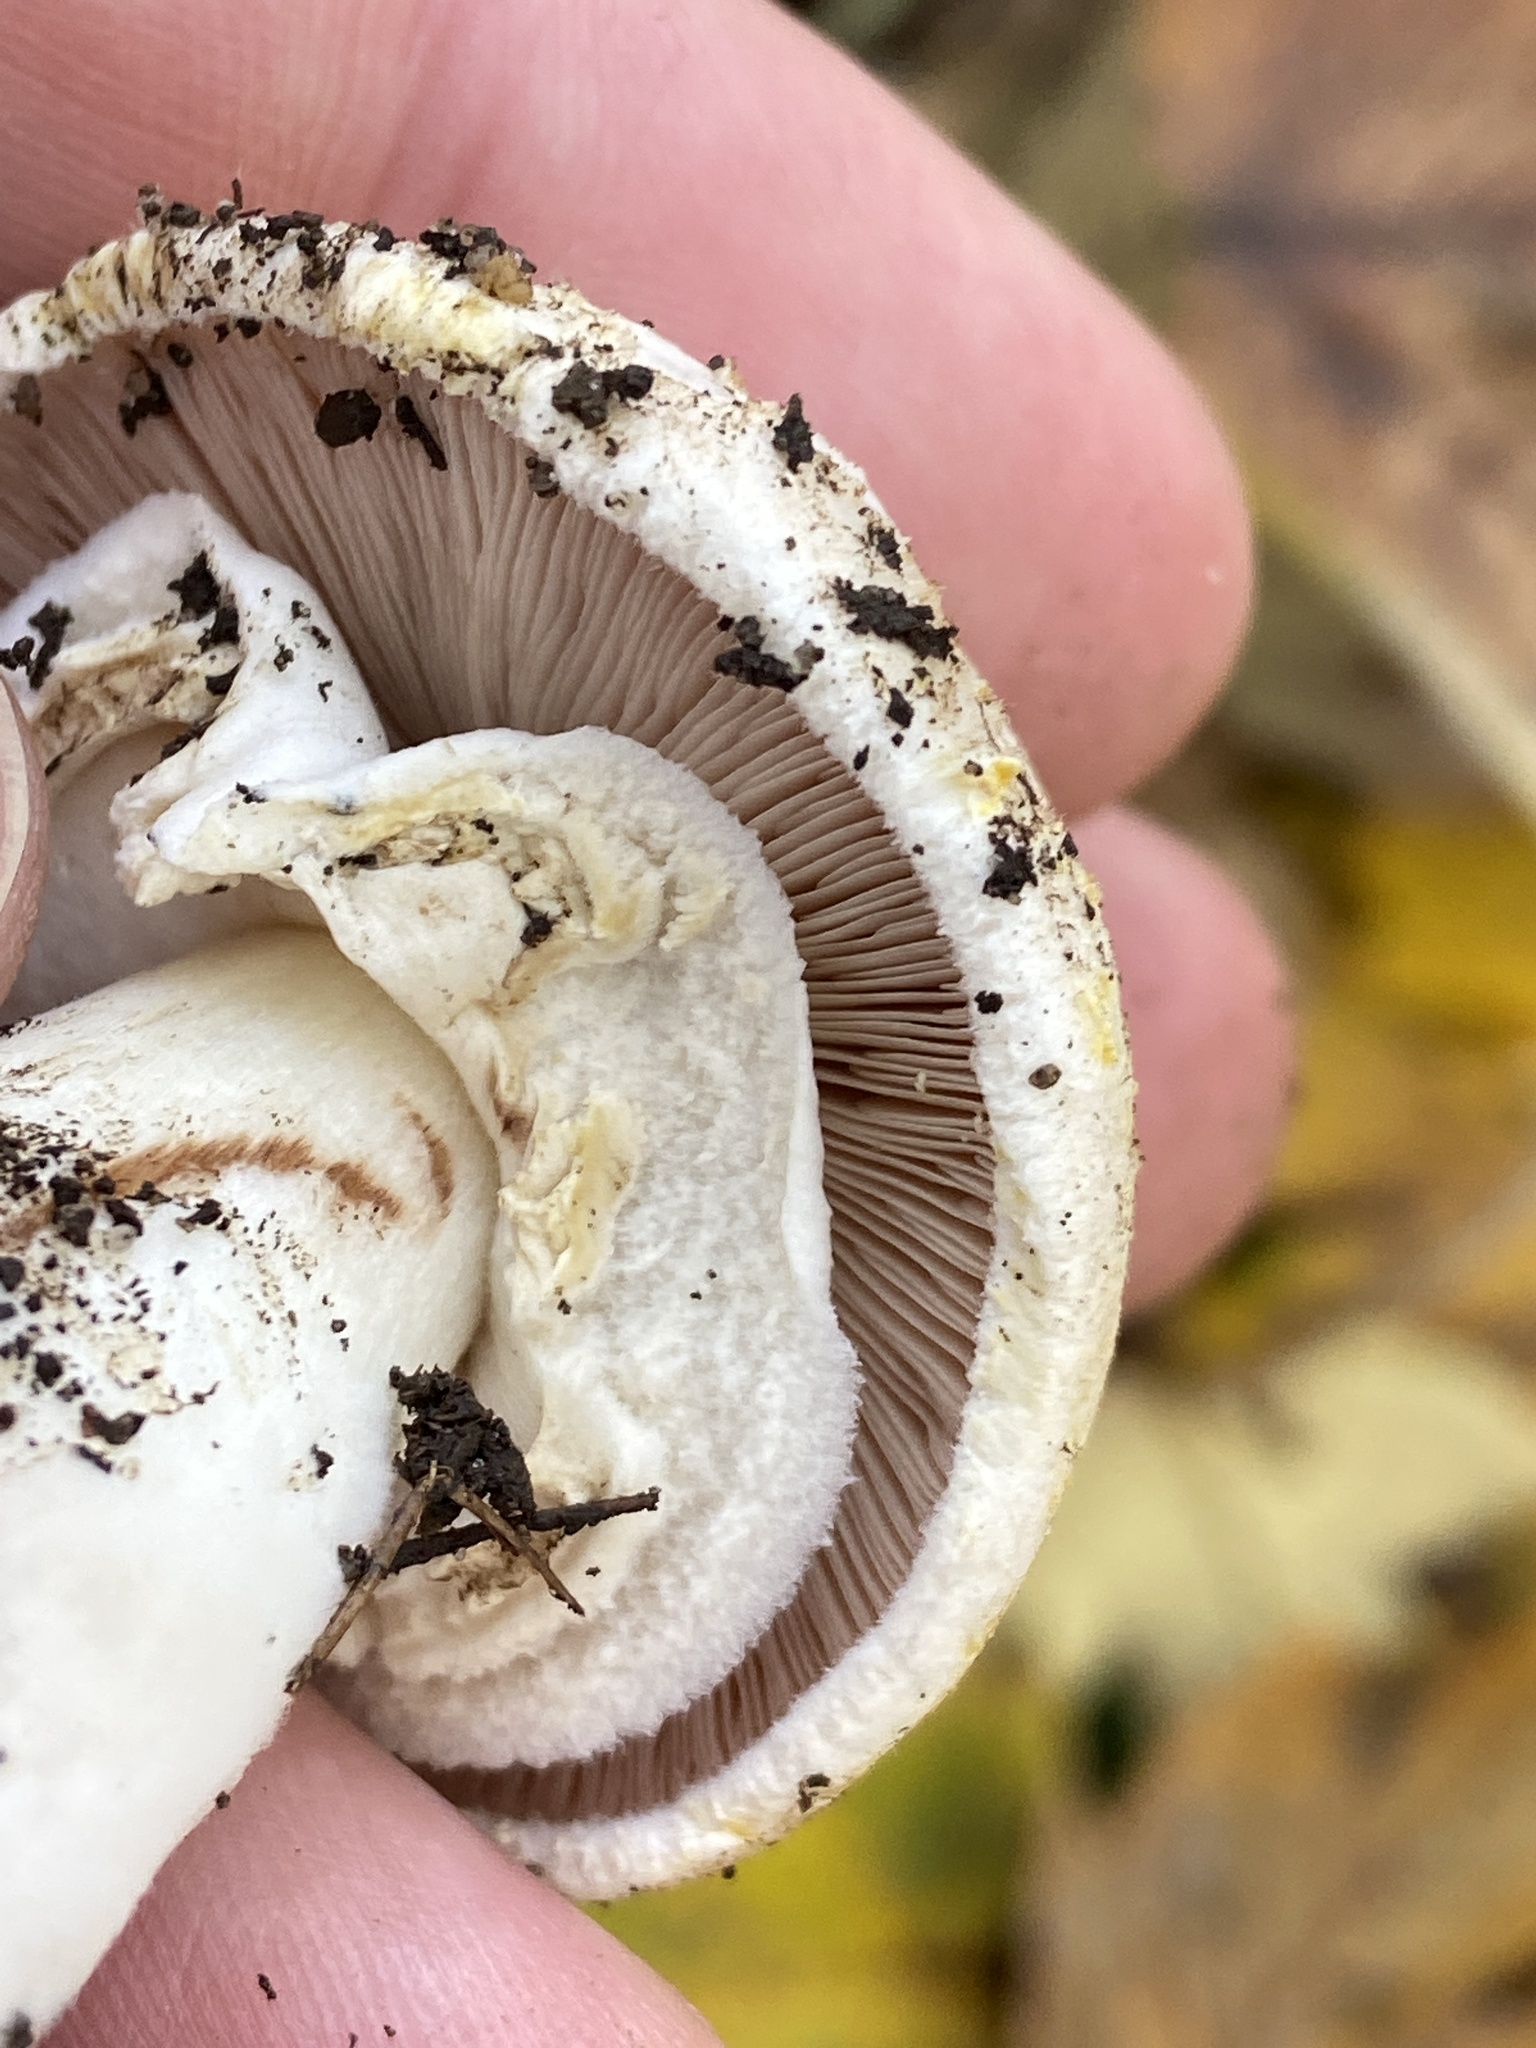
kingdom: Fungi
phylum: Basidiomycota
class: Agaricomycetes
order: Agaricales
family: Agaricaceae
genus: Agaricus
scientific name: Agaricus xanthodermus
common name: Yellow stainer
